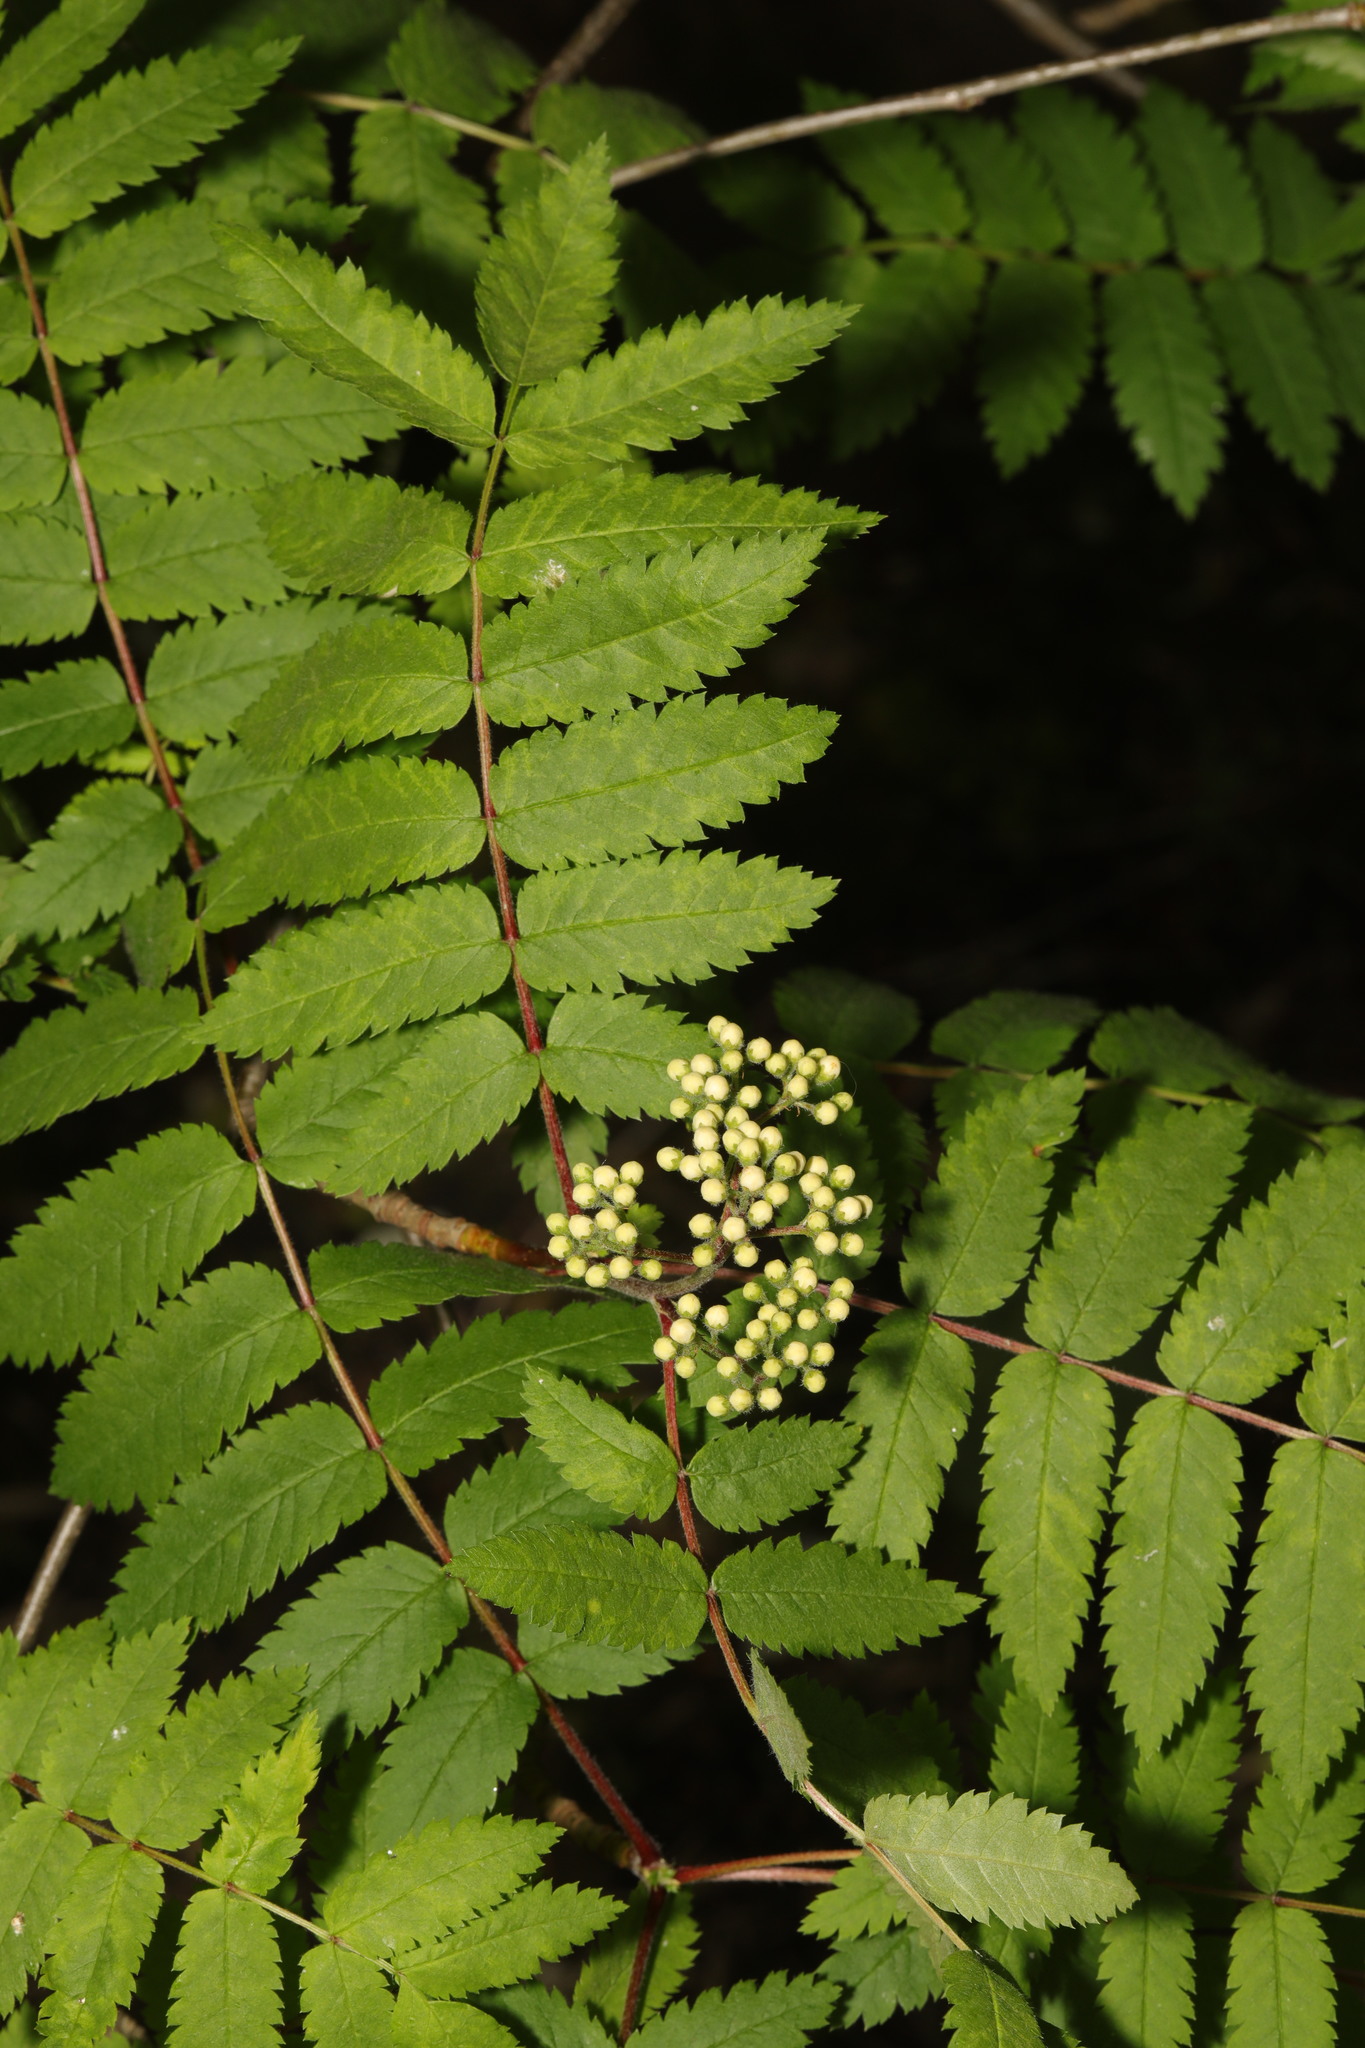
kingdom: Plantae
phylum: Tracheophyta
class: Magnoliopsida
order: Rosales
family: Rosaceae
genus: Sorbus
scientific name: Sorbus aucuparia
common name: Rowan
